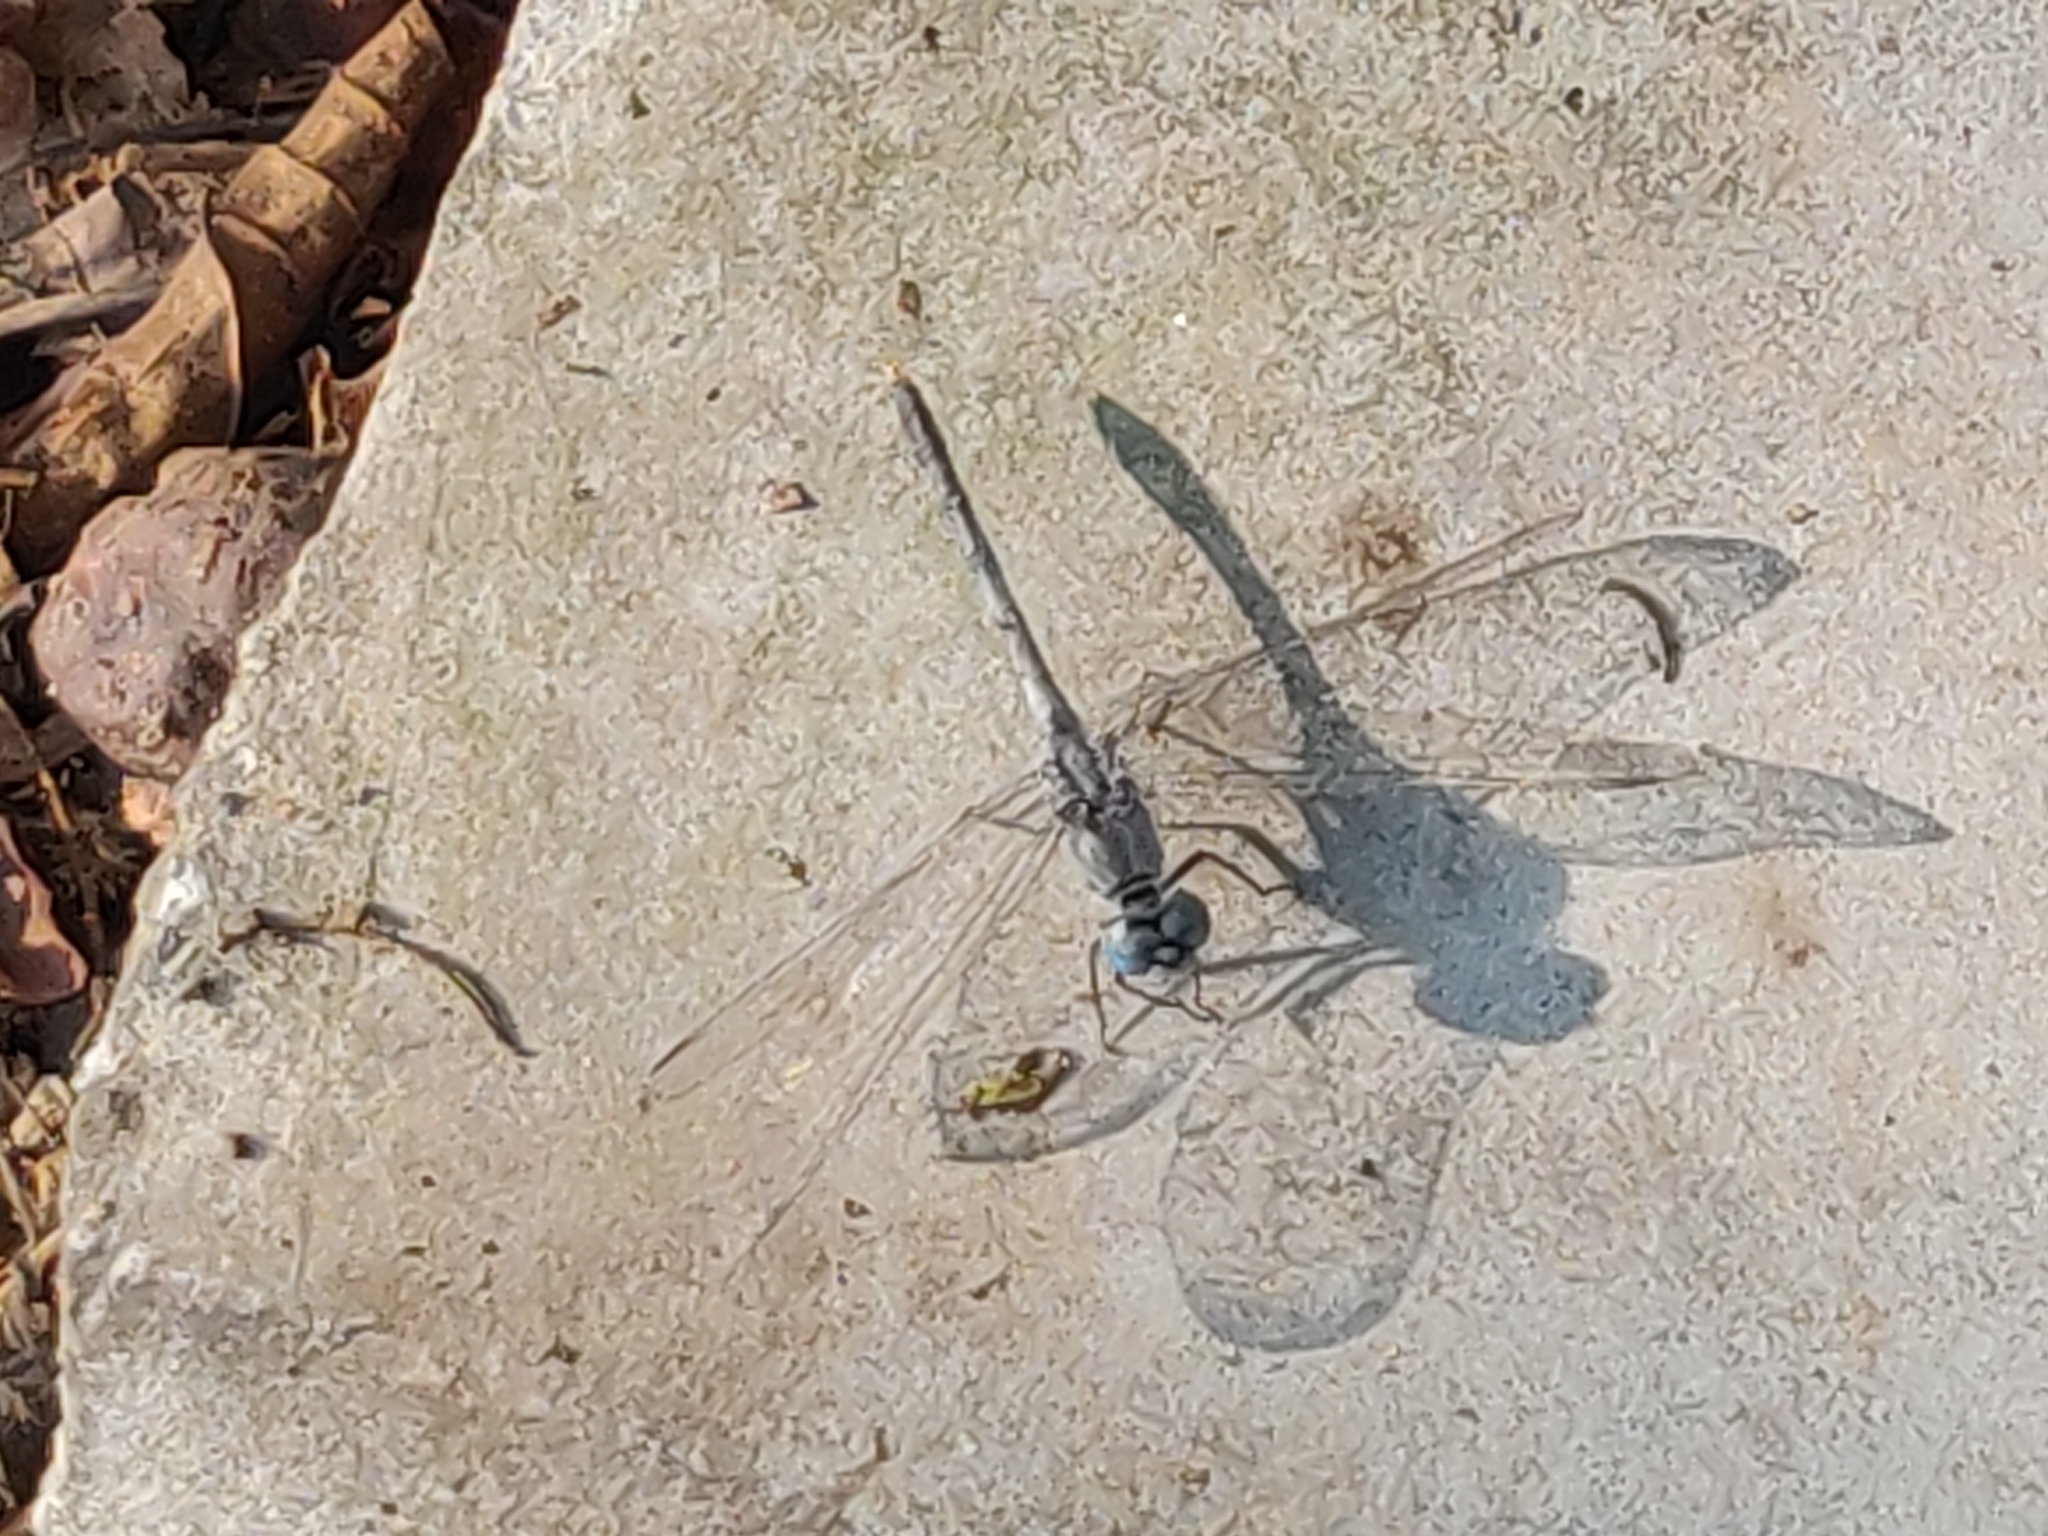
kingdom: Animalia
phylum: Arthropoda
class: Insecta
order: Odonata
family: Libellulidae
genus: Diplacodes
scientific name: Diplacodes trivialis
